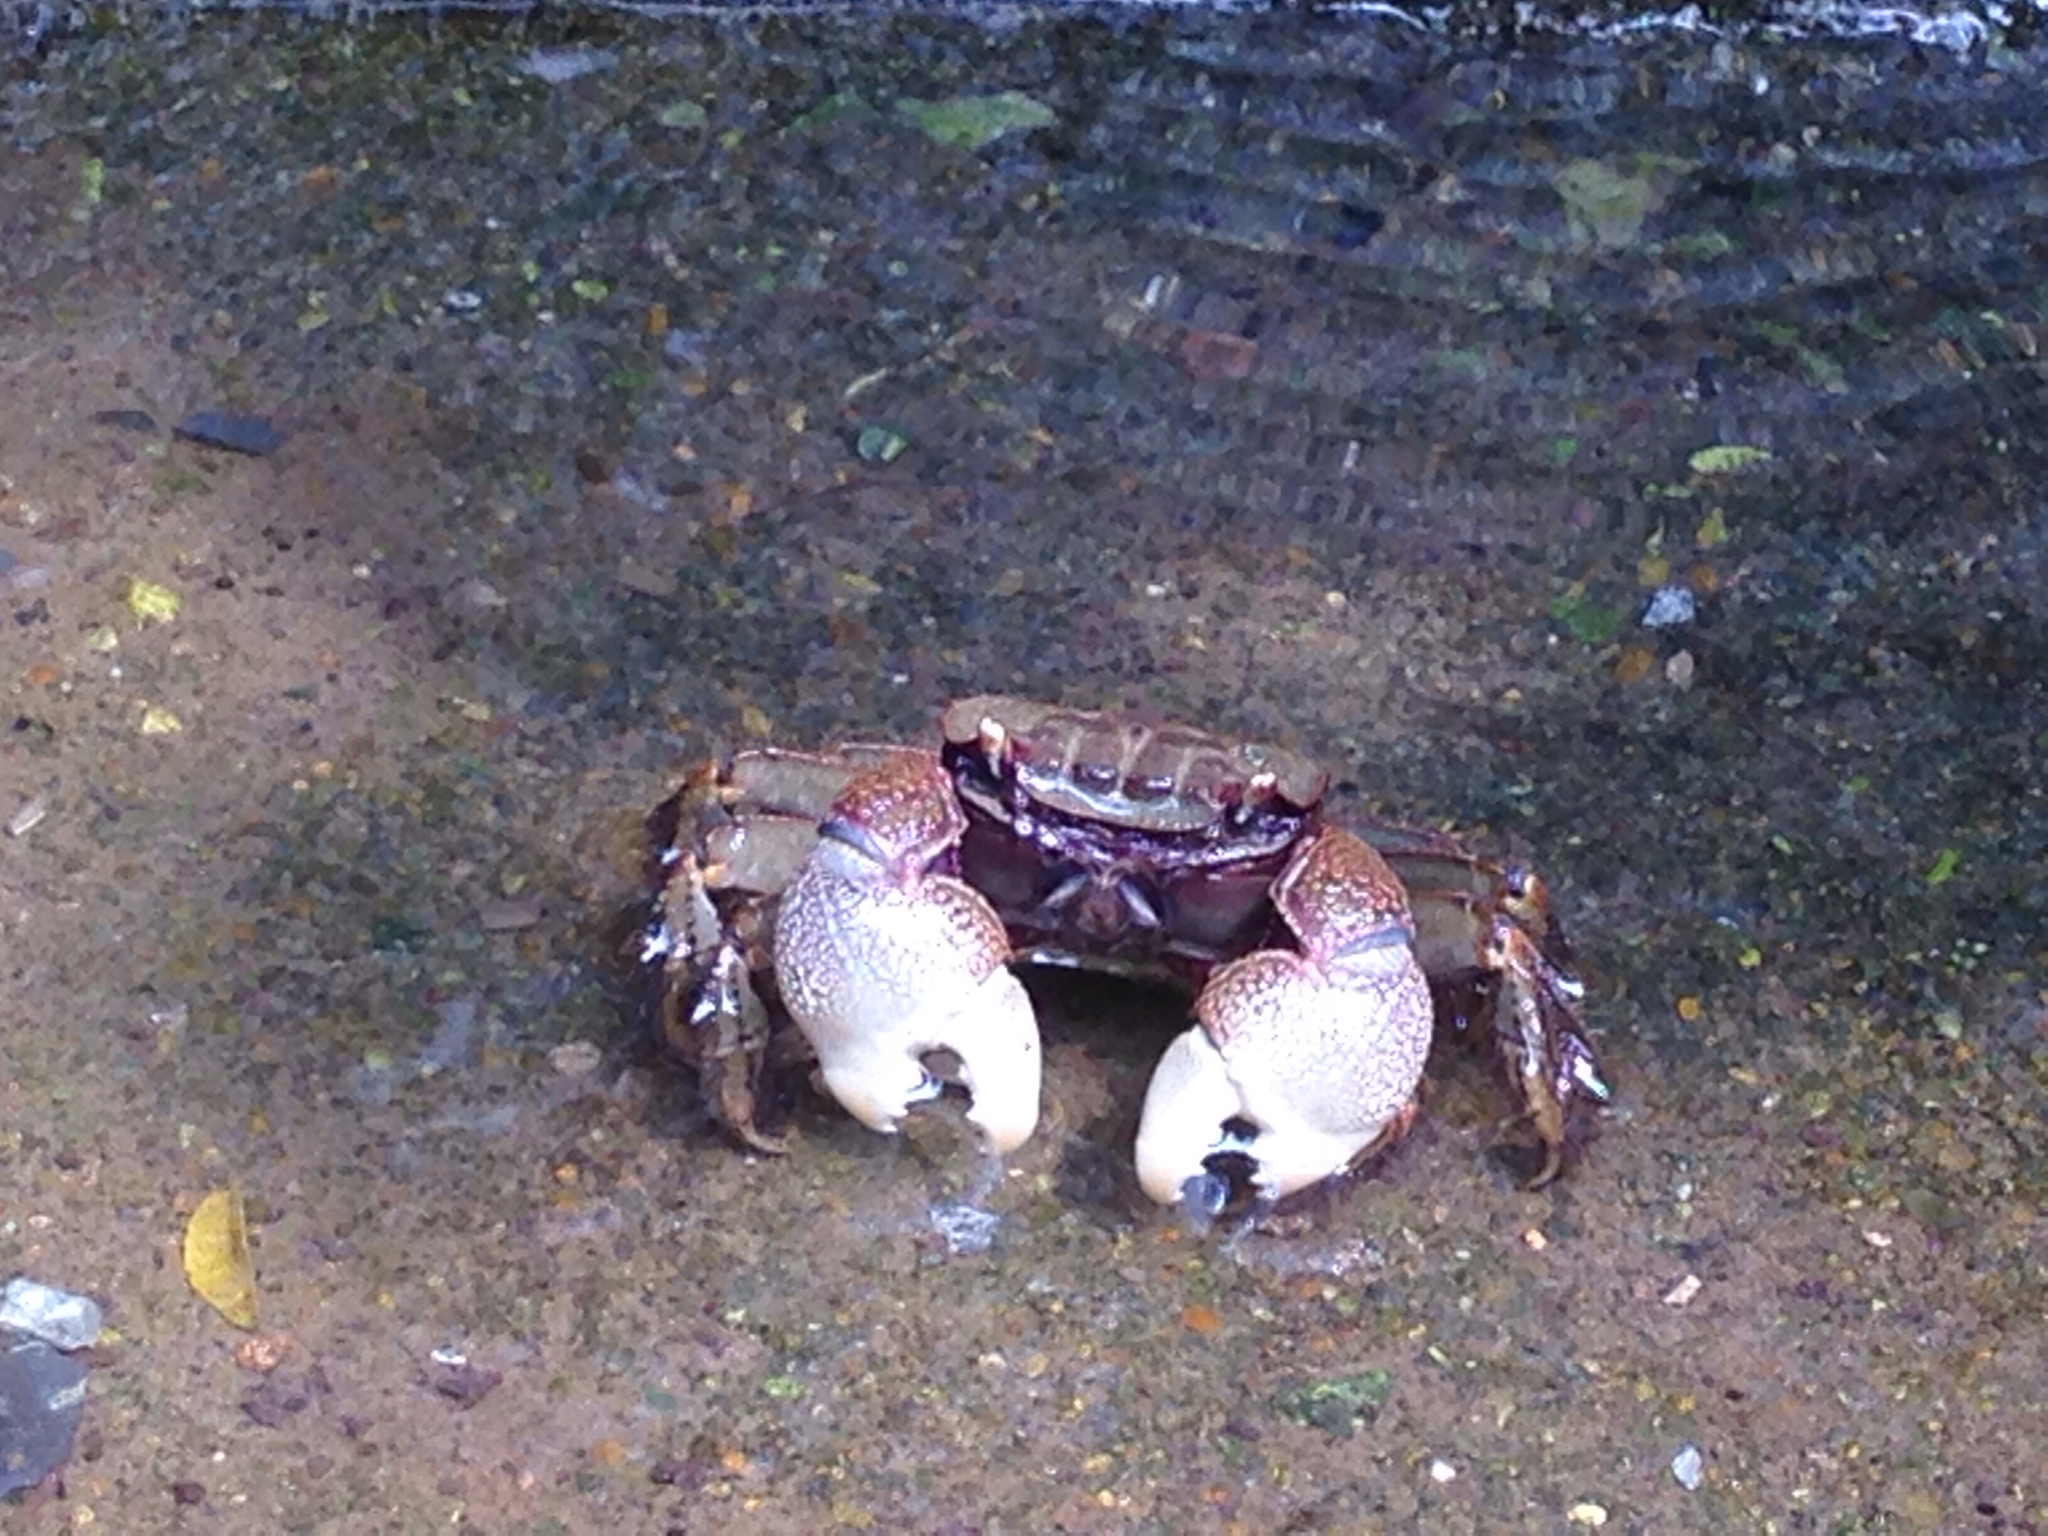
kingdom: Animalia
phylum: Arthropoda
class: Malacostraca
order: Decapoda
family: Sesarmidae
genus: Orisarma
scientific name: Orisarma dehaani
